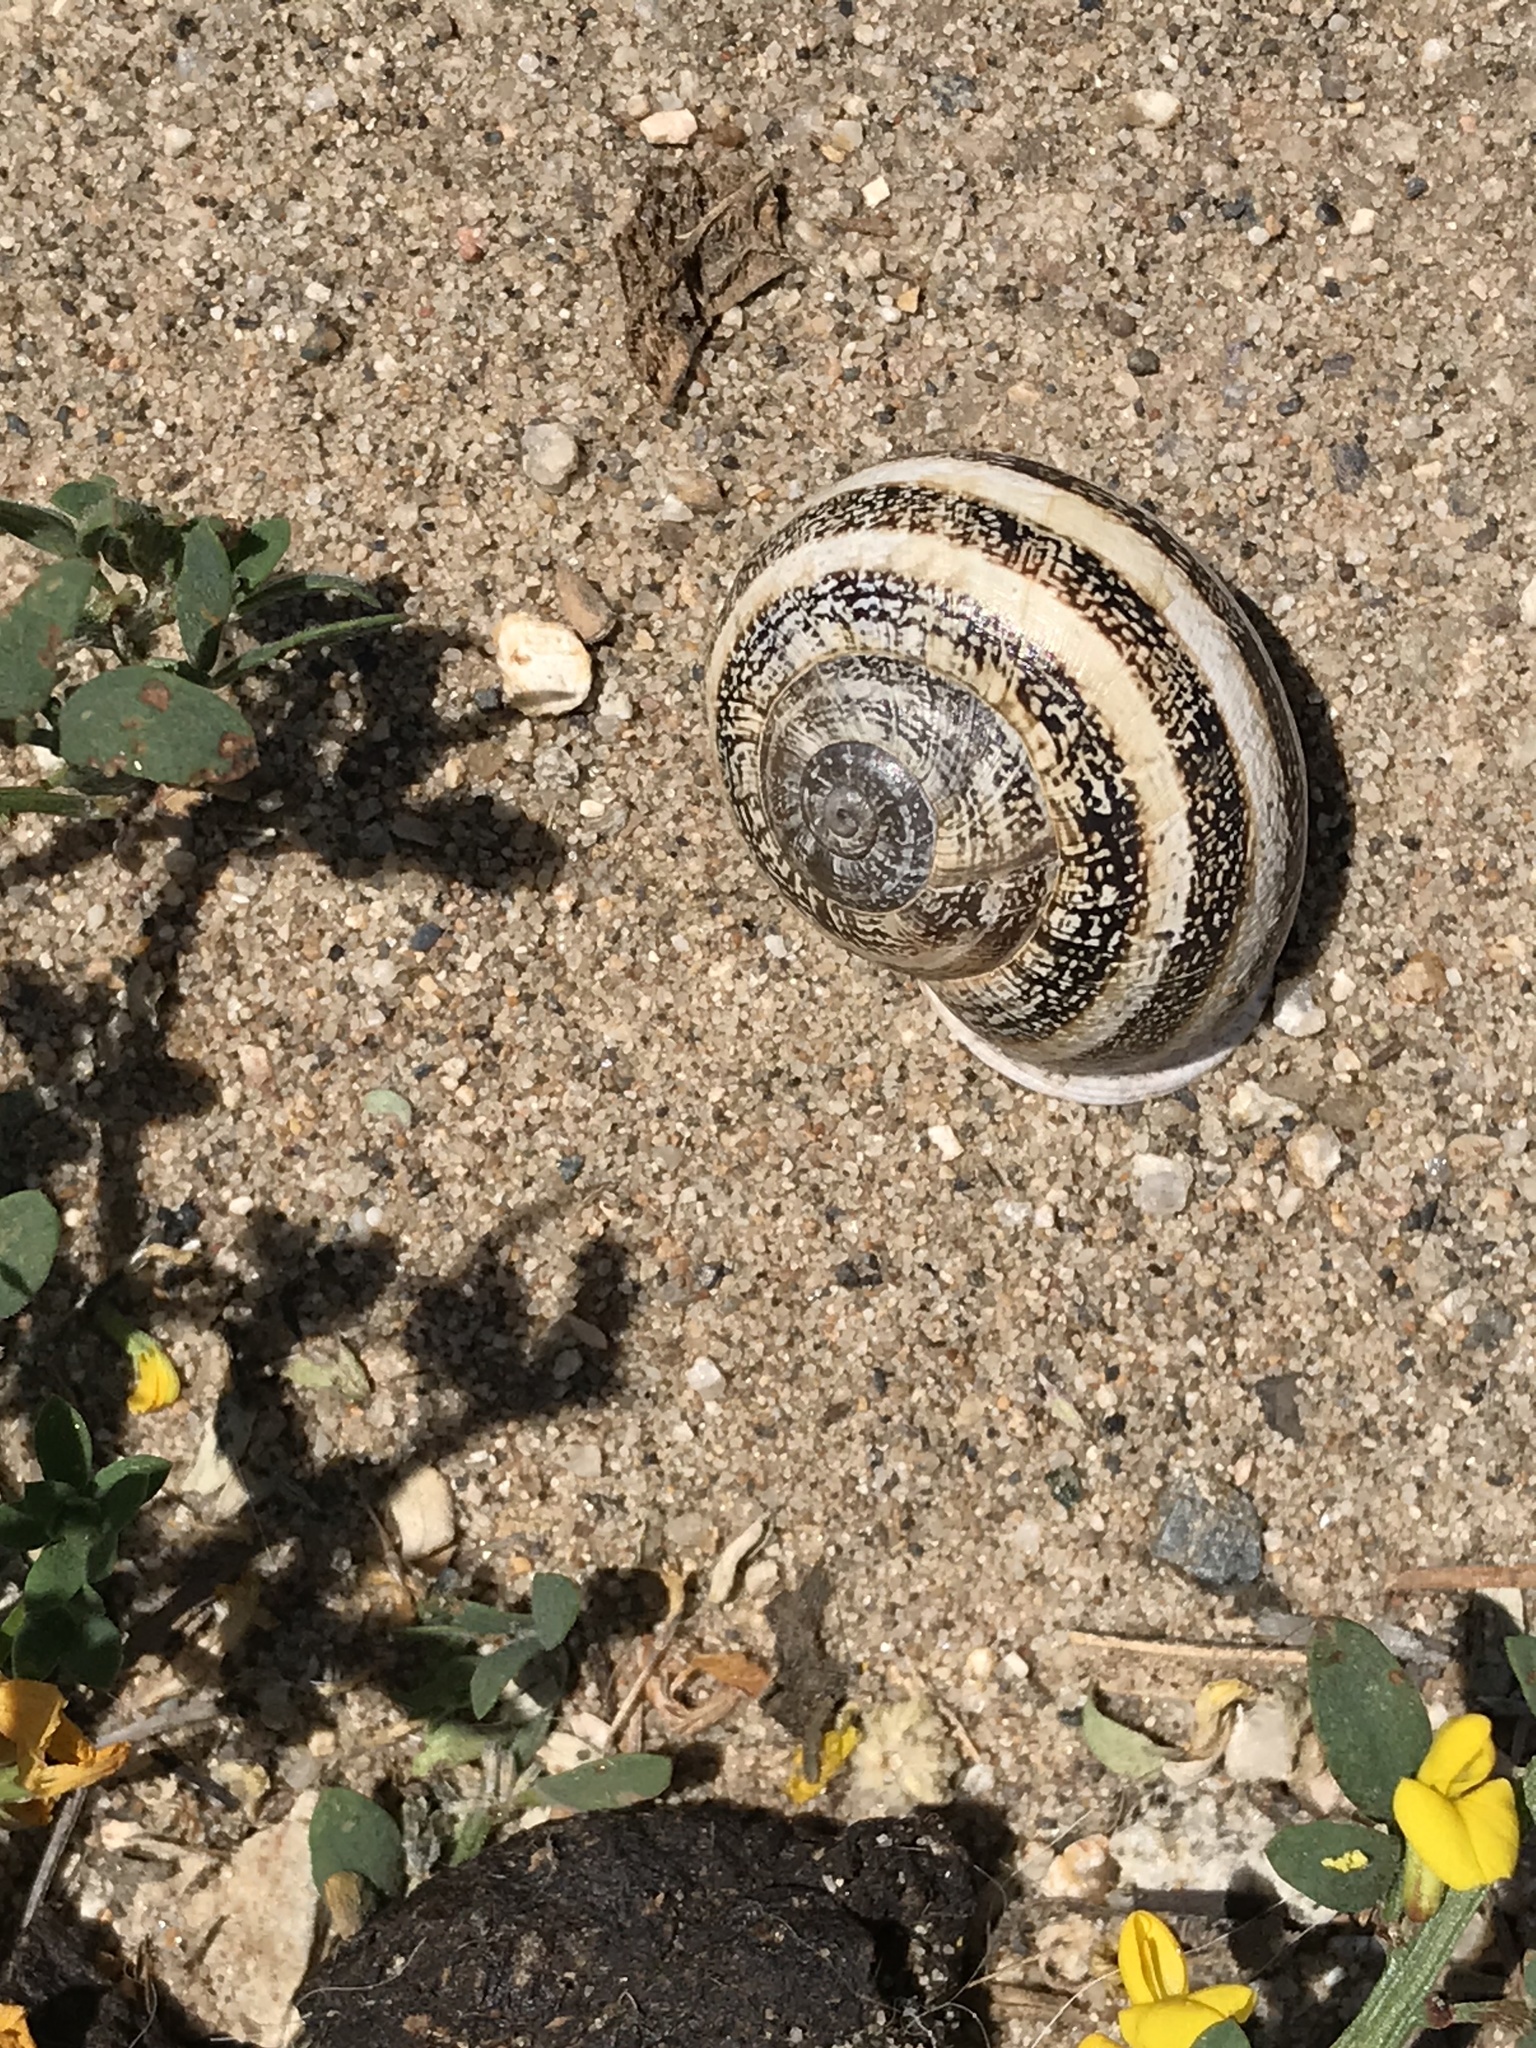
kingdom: Animalia
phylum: Mollusca
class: Gastropoda
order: Stylommatophora
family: Helicidae
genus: Otala
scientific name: Otala lactea
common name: Milk snail
